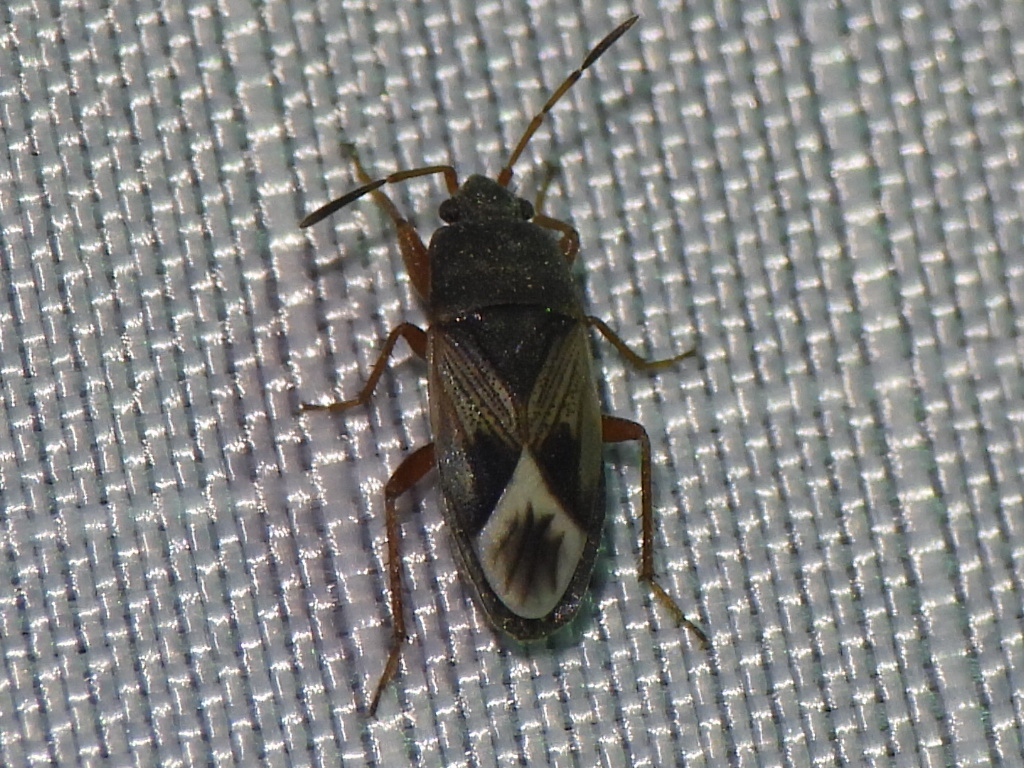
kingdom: Animalia
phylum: Arthropoda
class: Insecta
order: Hemiptera
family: Rhyparochromidae
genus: Malezonotus
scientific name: Malezonotus rufipes
